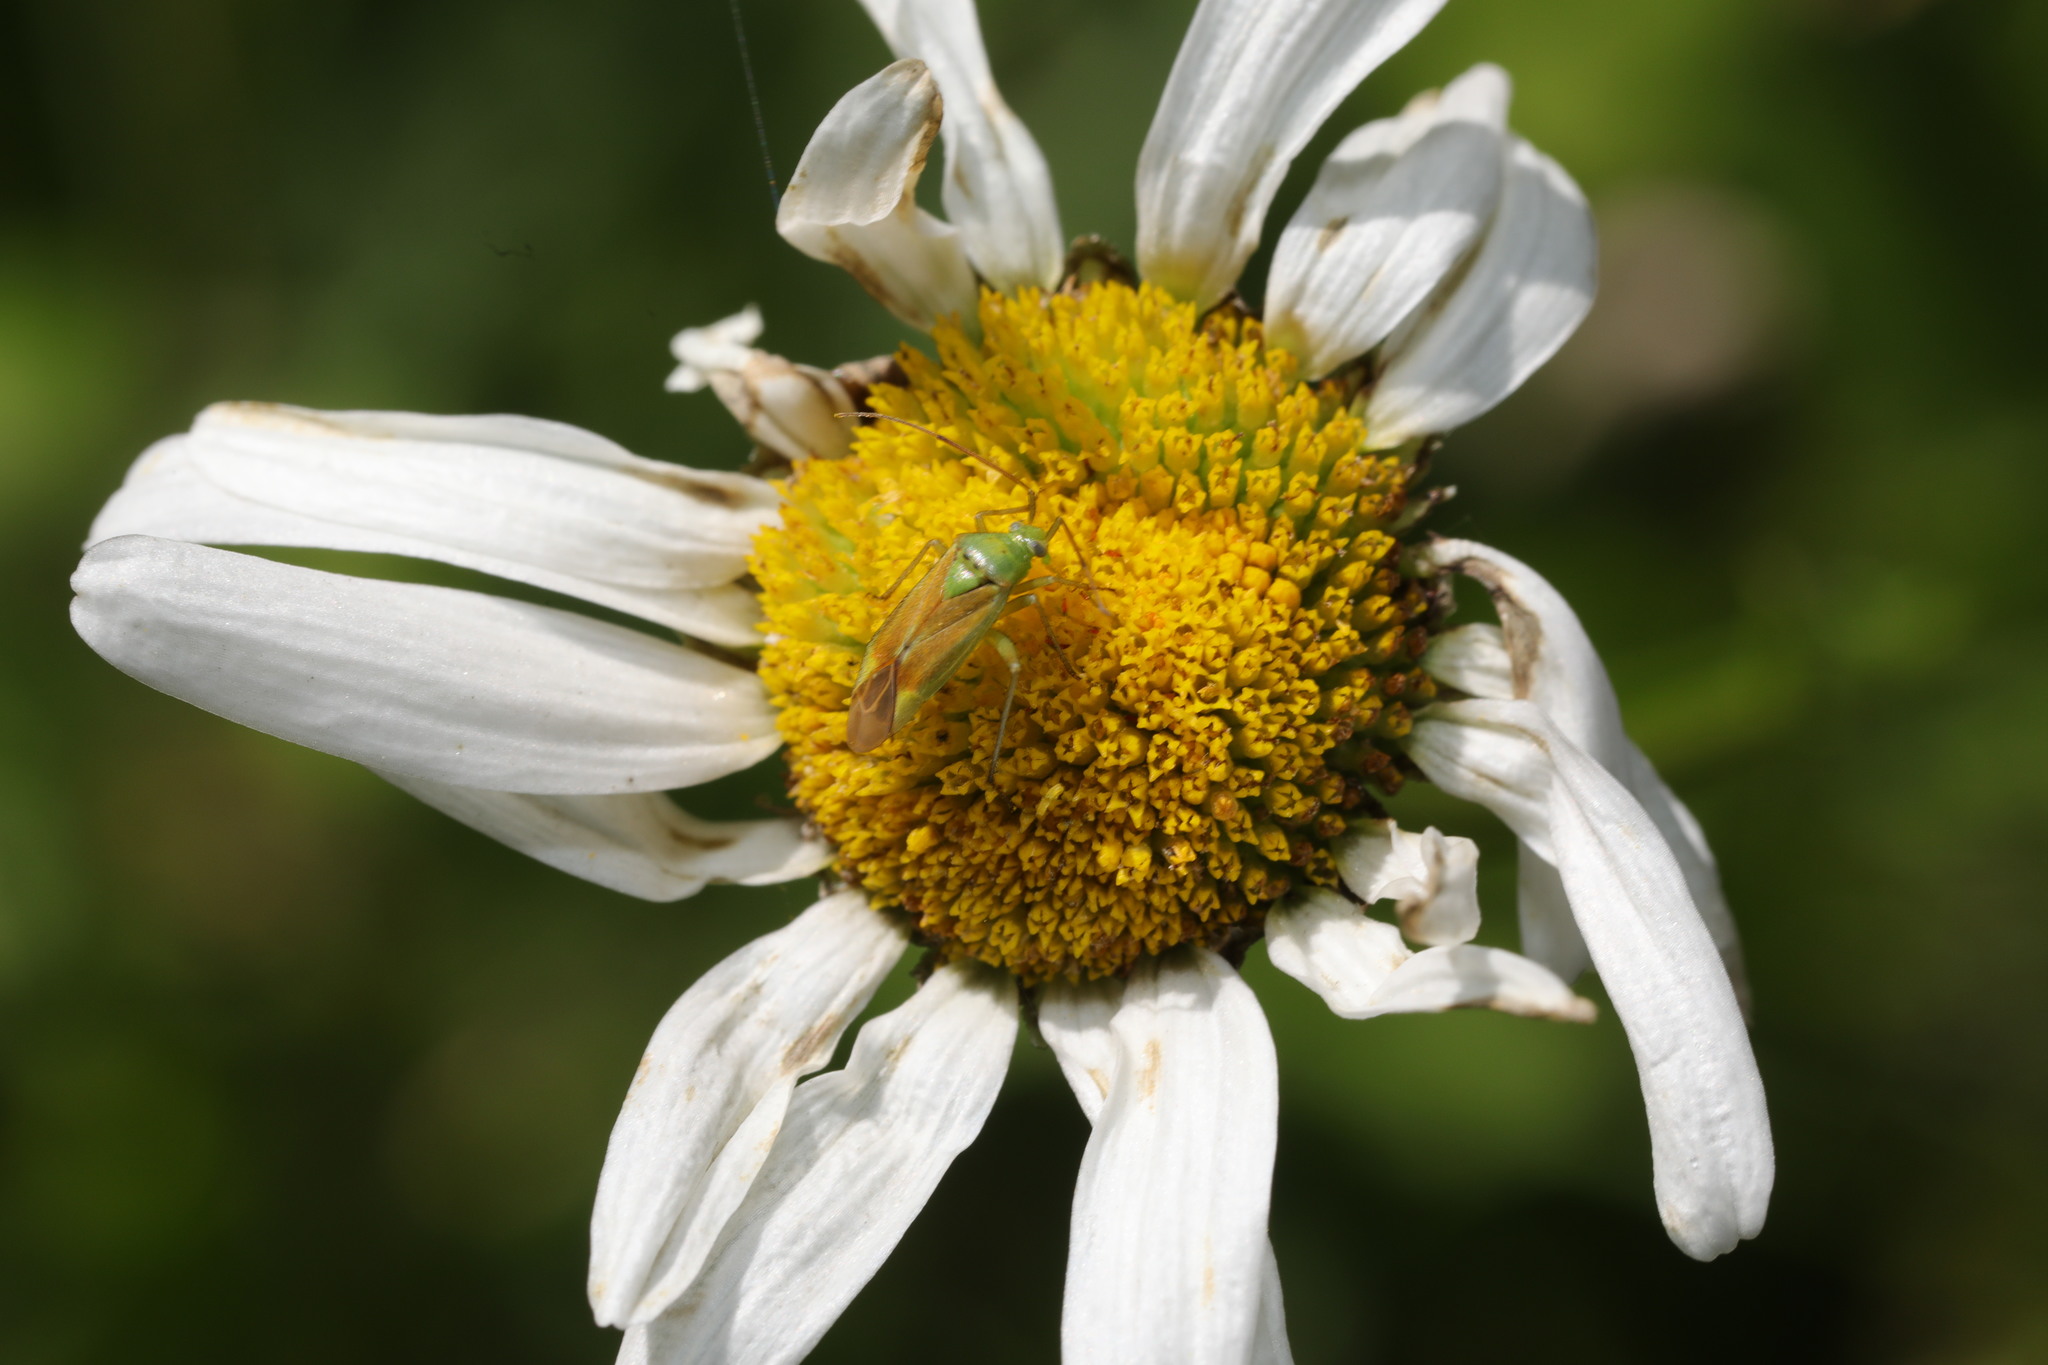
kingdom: Animalia
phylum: Arthropoda
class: Insecta
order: Hemiptera
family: Miridae
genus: Closterotomus
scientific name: Closterotomus norvegicus
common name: Plant bug
